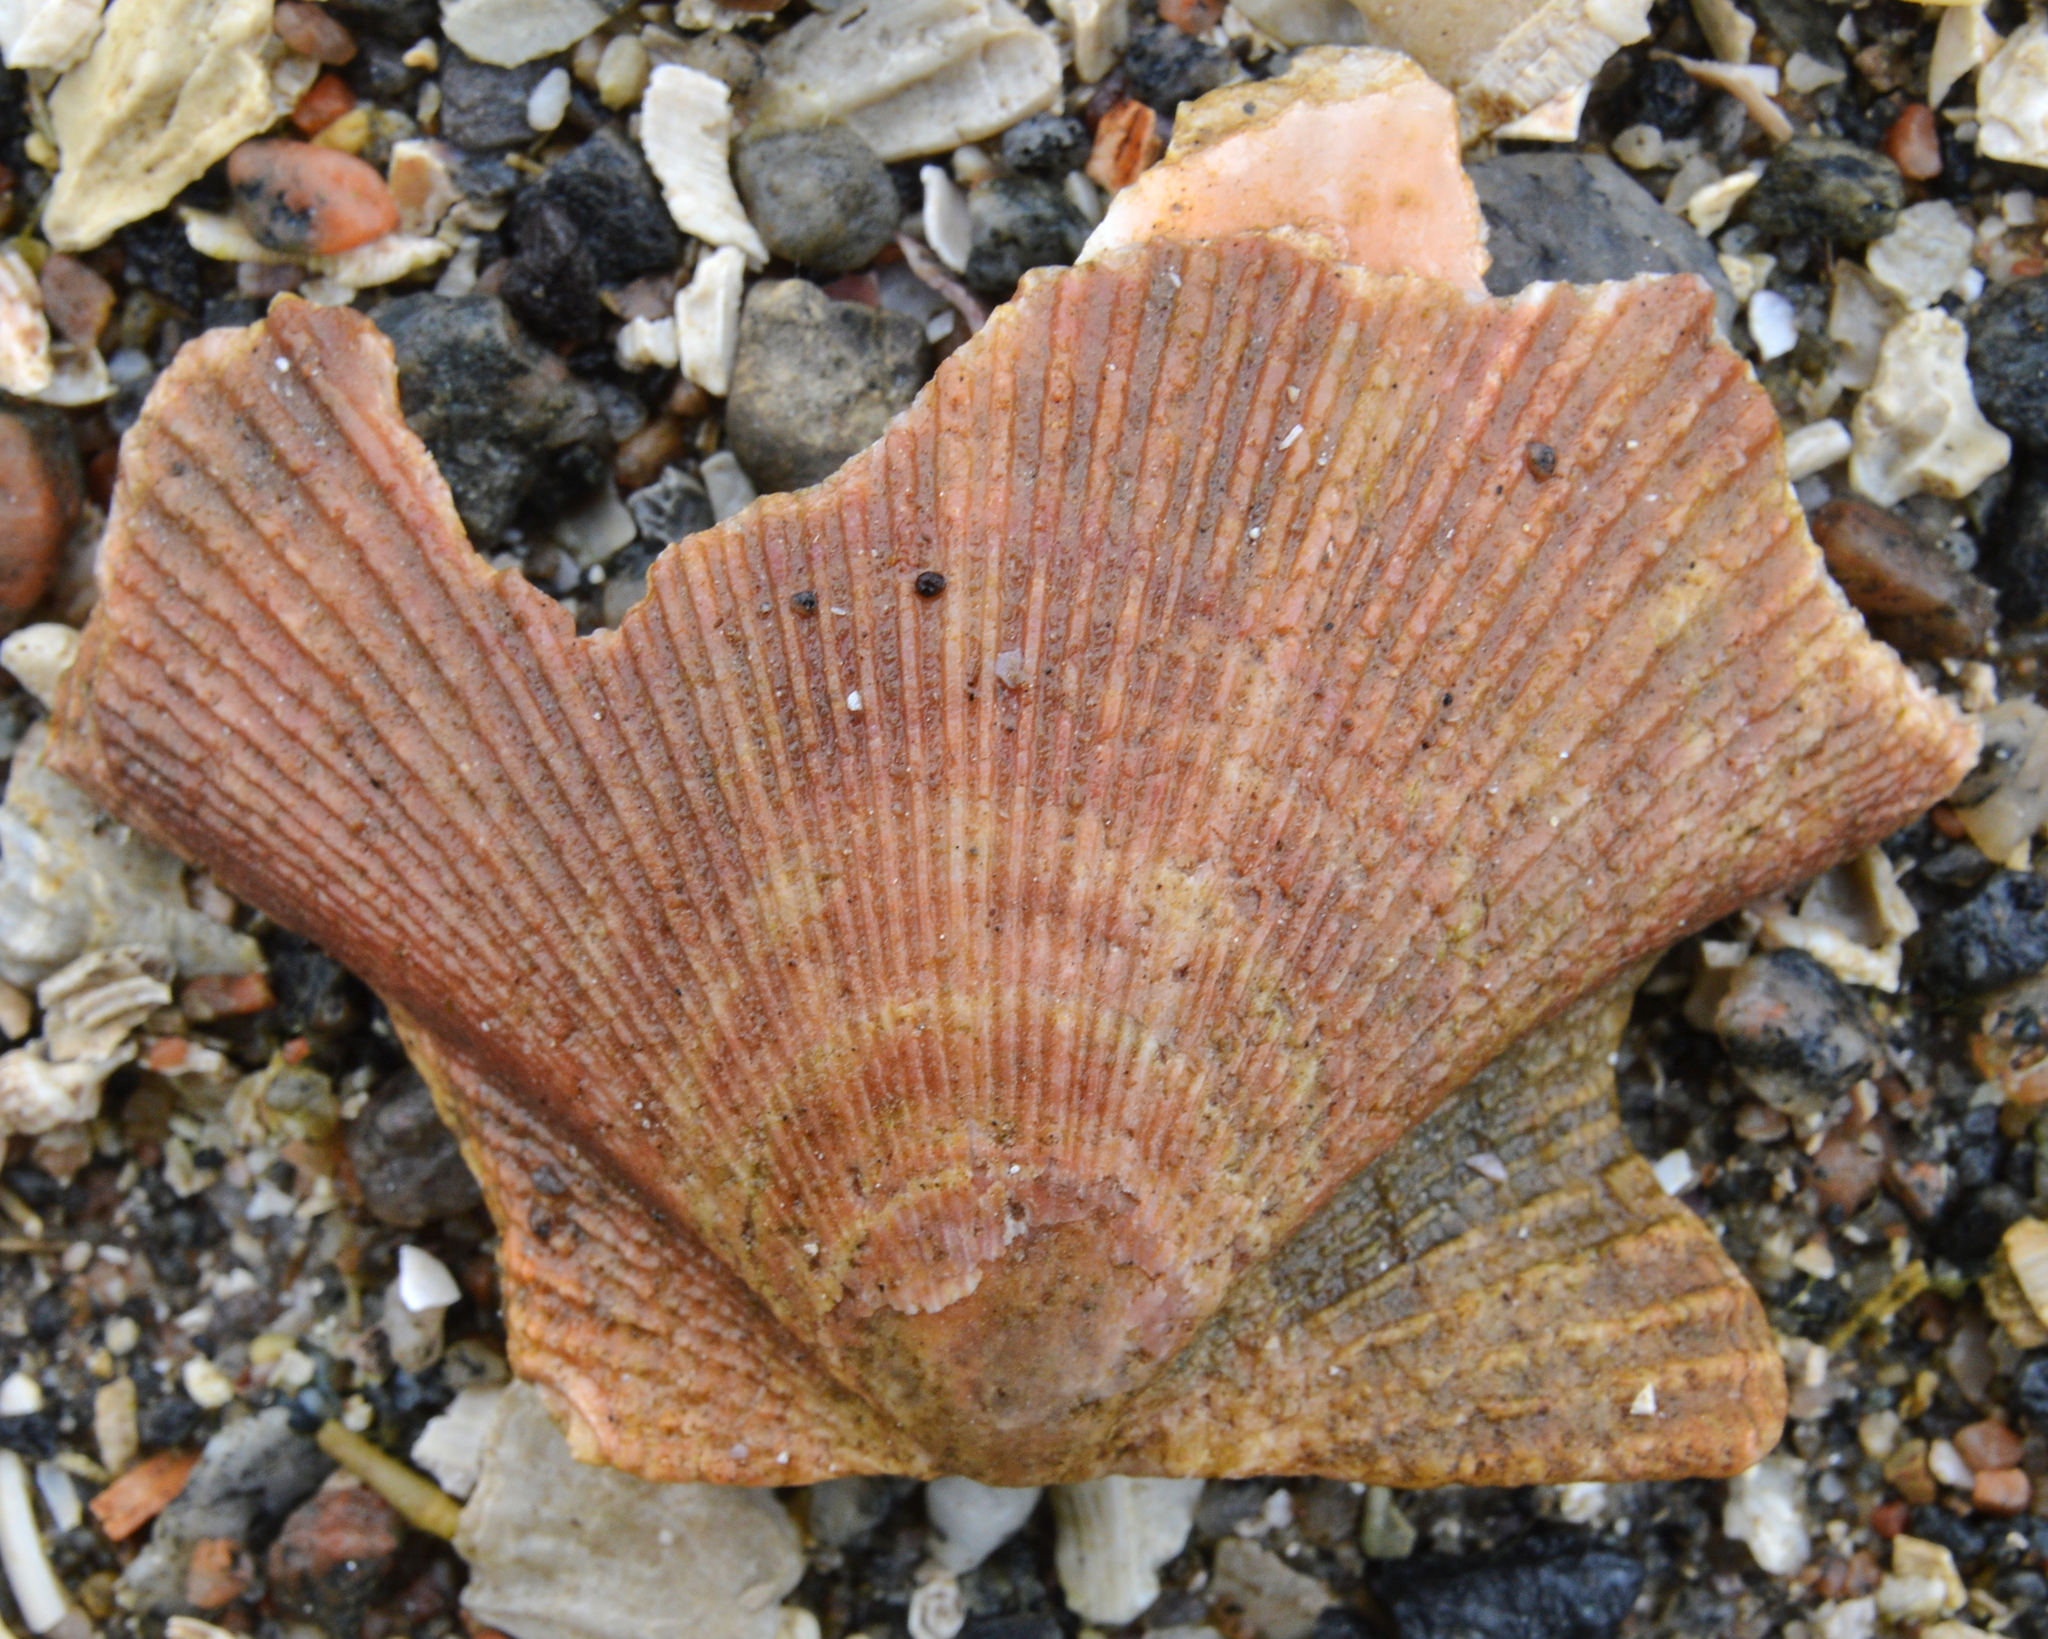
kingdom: Animalia
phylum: Mollusca
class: Bivalvia
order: Pectinida
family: Pectinidae
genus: Chlamys
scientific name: Chlamys islandica
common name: Iceland scallop
